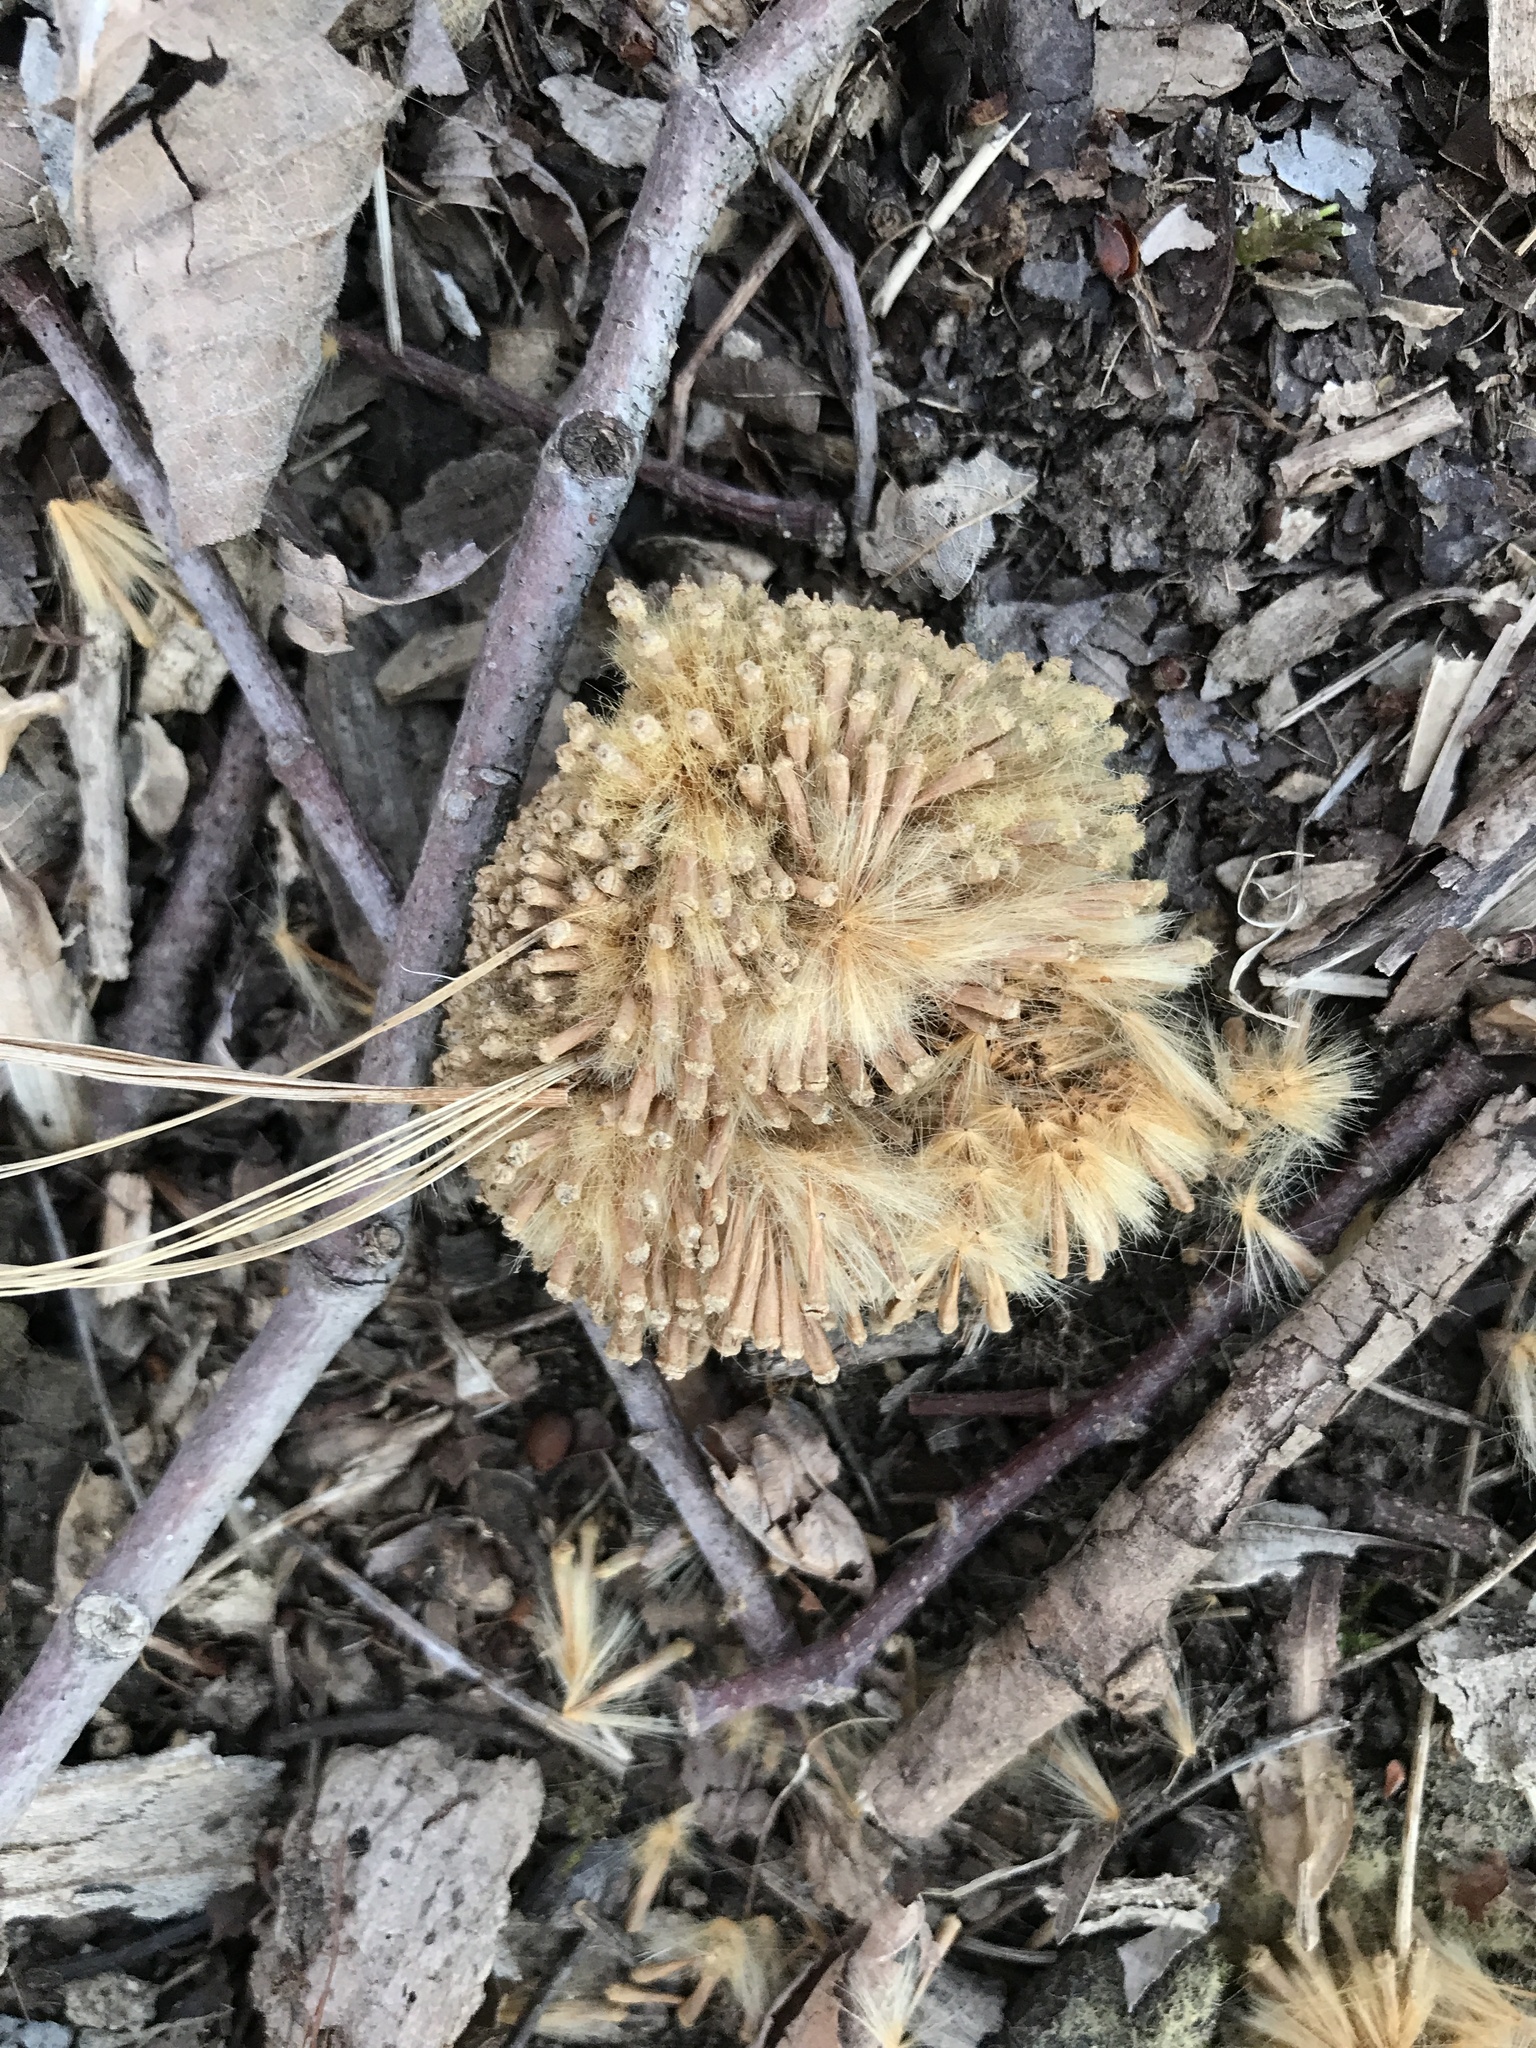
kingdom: Plantae
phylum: Tracheophyta
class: Magnoliopsida
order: Proteales
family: Platanaceae
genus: Platanus
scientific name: Platanus occidentalis
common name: American sycamore
